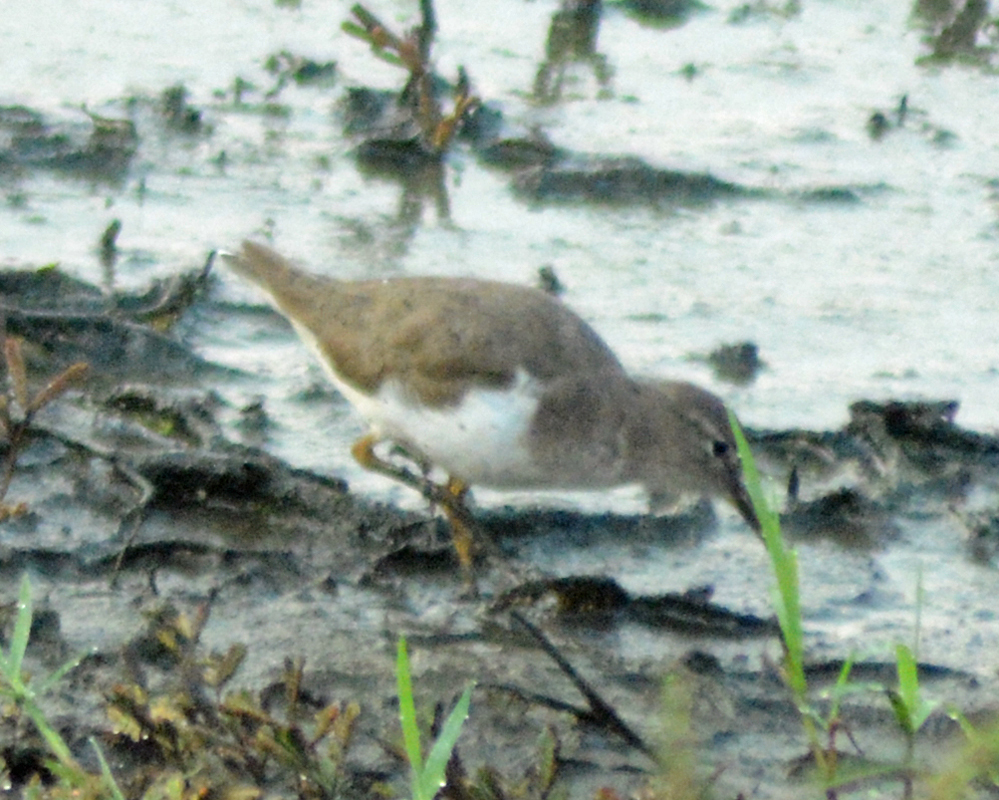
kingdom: Animalia
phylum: Chordata
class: Aves
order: Charadriiformes
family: Scolopacidae
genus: Actitis
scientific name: Actitis macularius
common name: Spotted sandpiper
